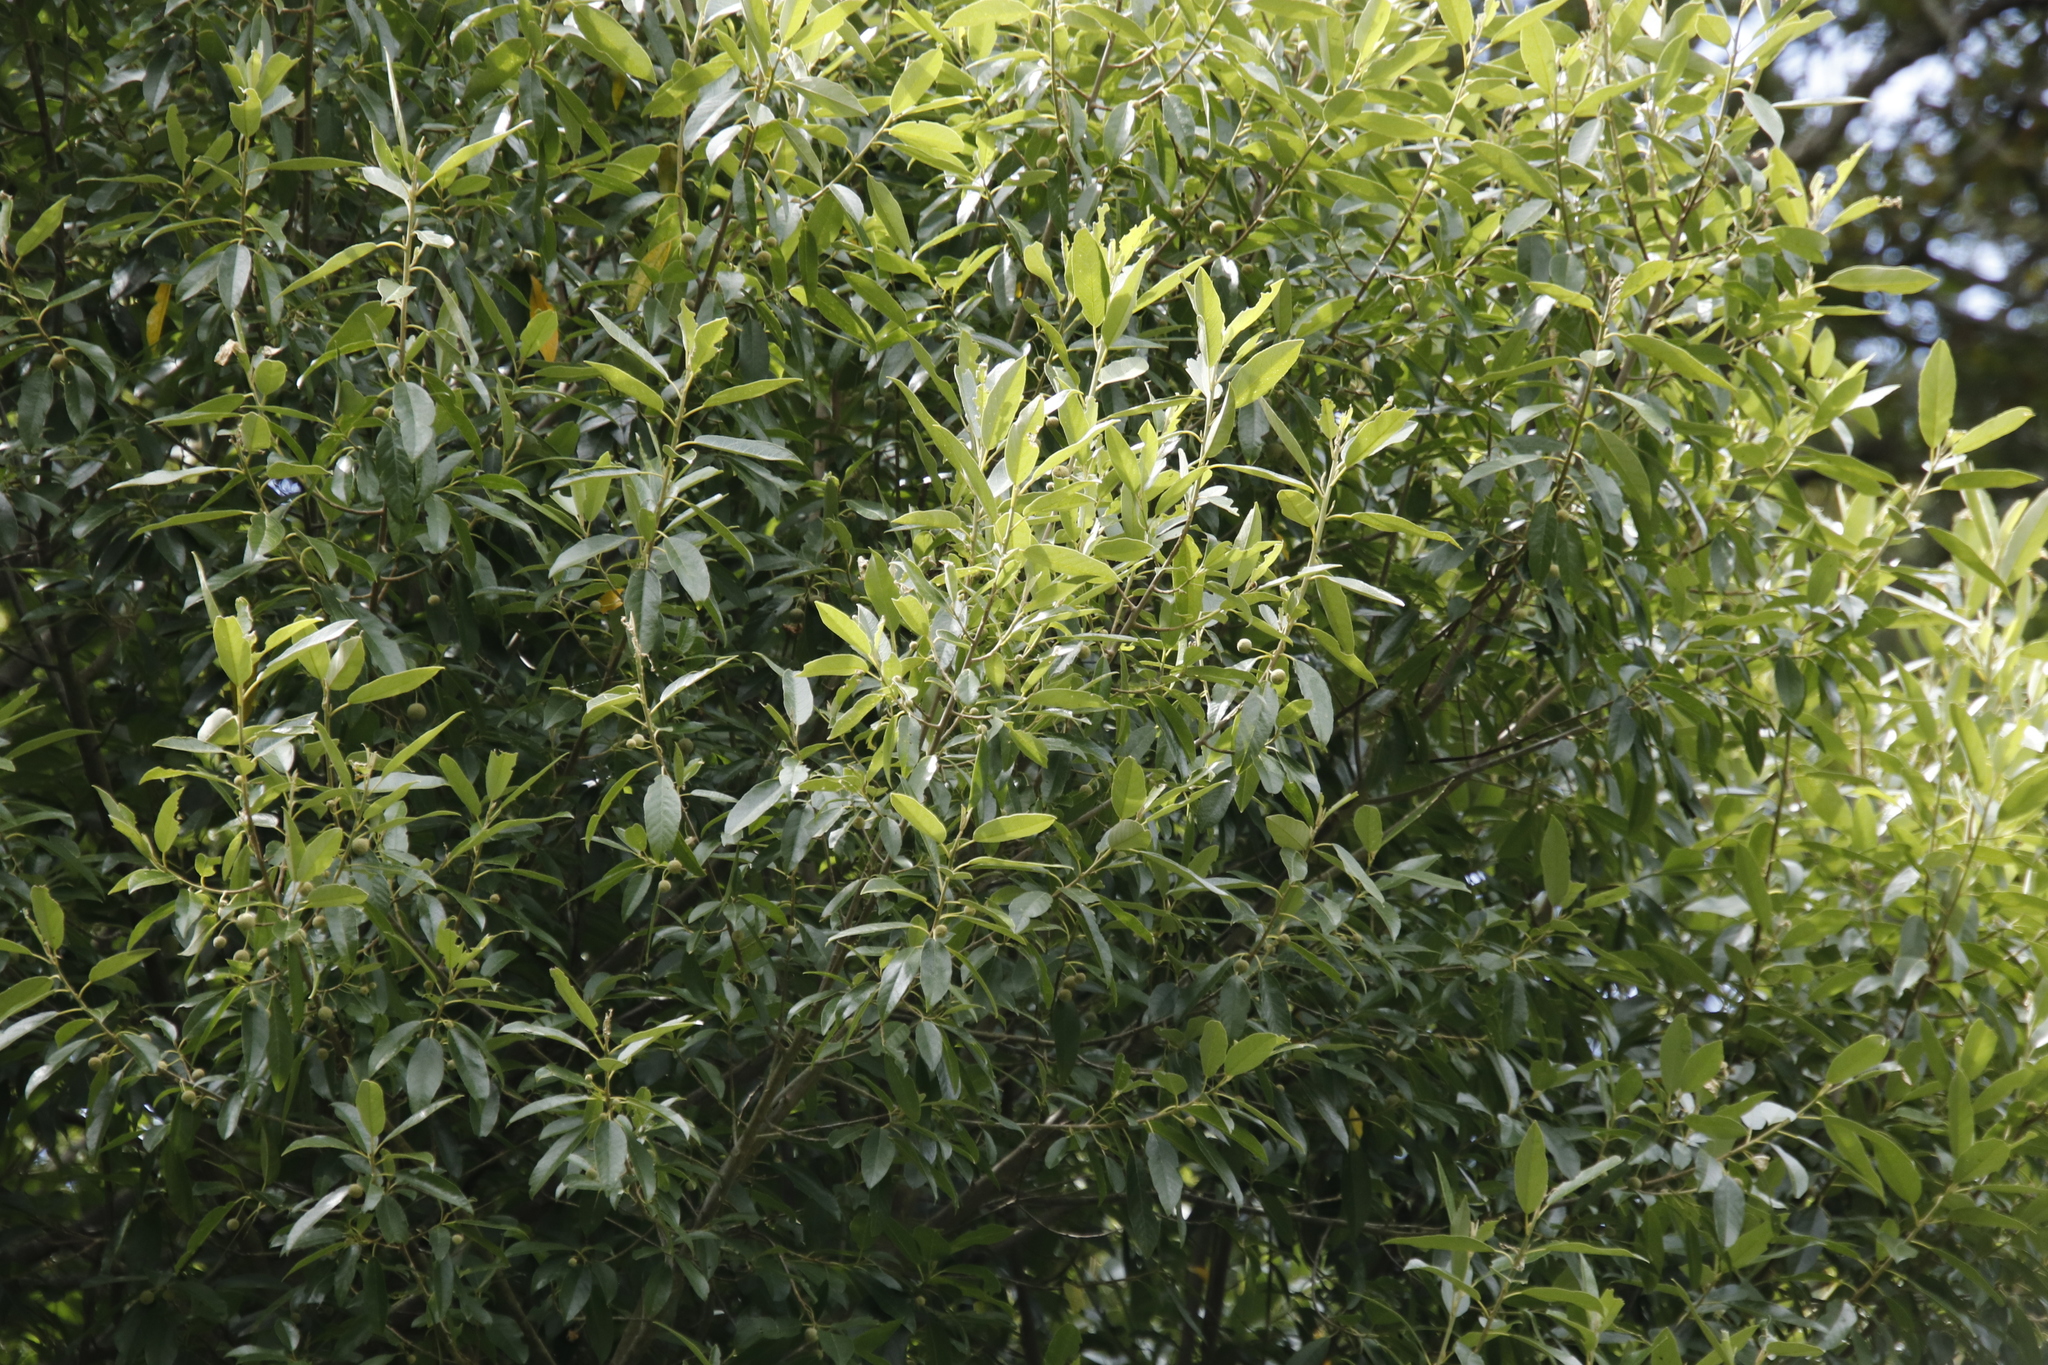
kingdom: Plantae
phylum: Tracheophyta
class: Magnoliopsida
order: Malpighiales
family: Achariaceae
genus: Kiggelaria
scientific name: Kiggelaria africana
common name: Wild peach
